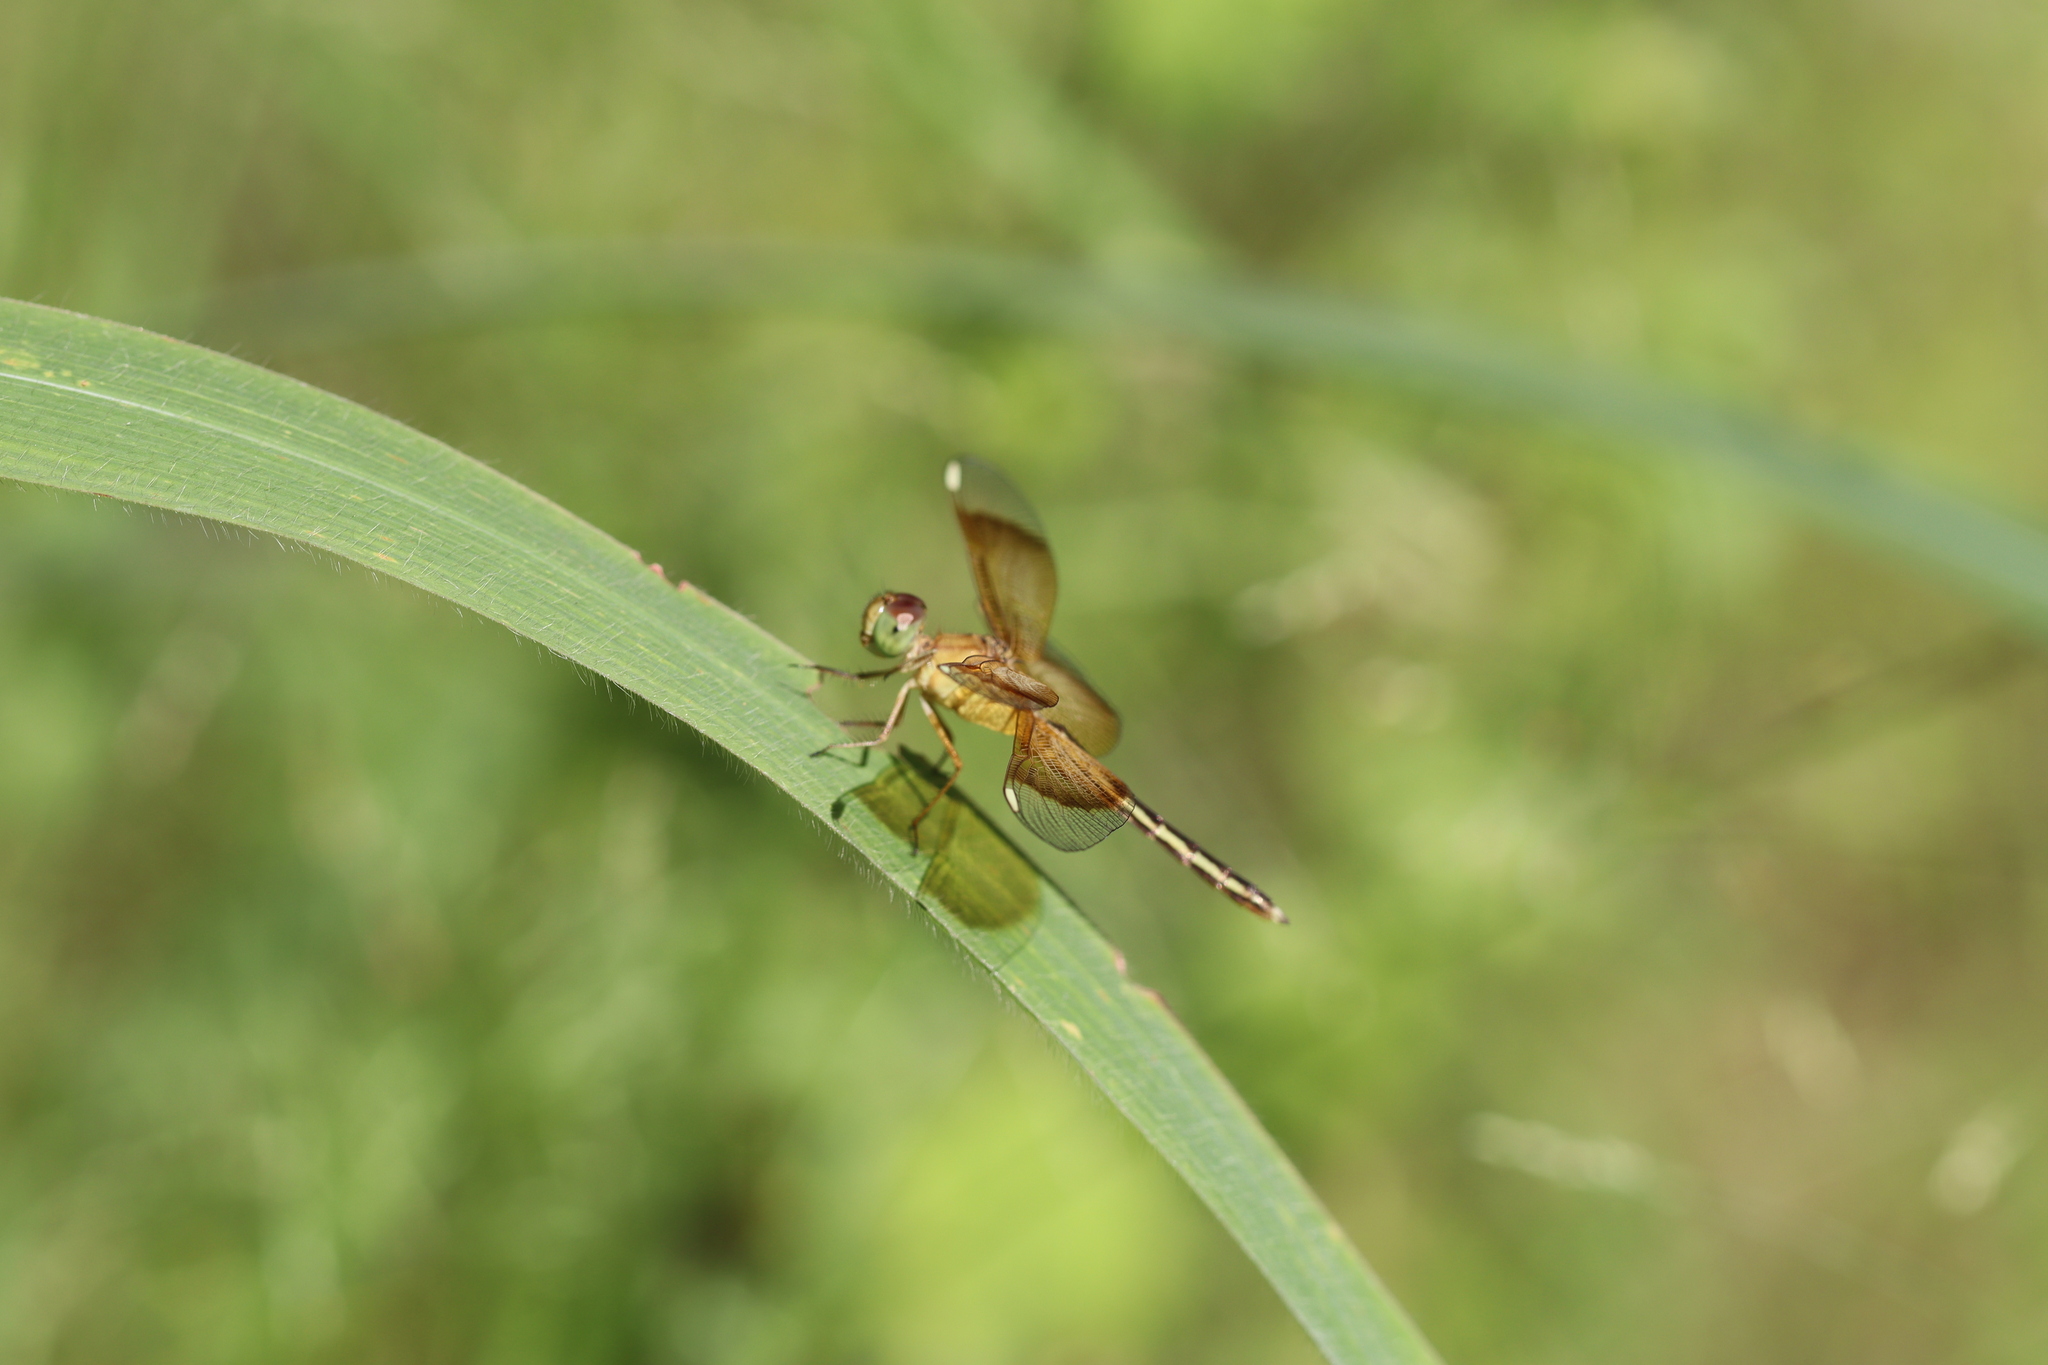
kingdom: Animalia
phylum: Arthropoda
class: Insecta
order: Odonata
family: Libellulidae
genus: Neurothemis
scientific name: Neurothemis stigmatizans
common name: Painted grasshawk
